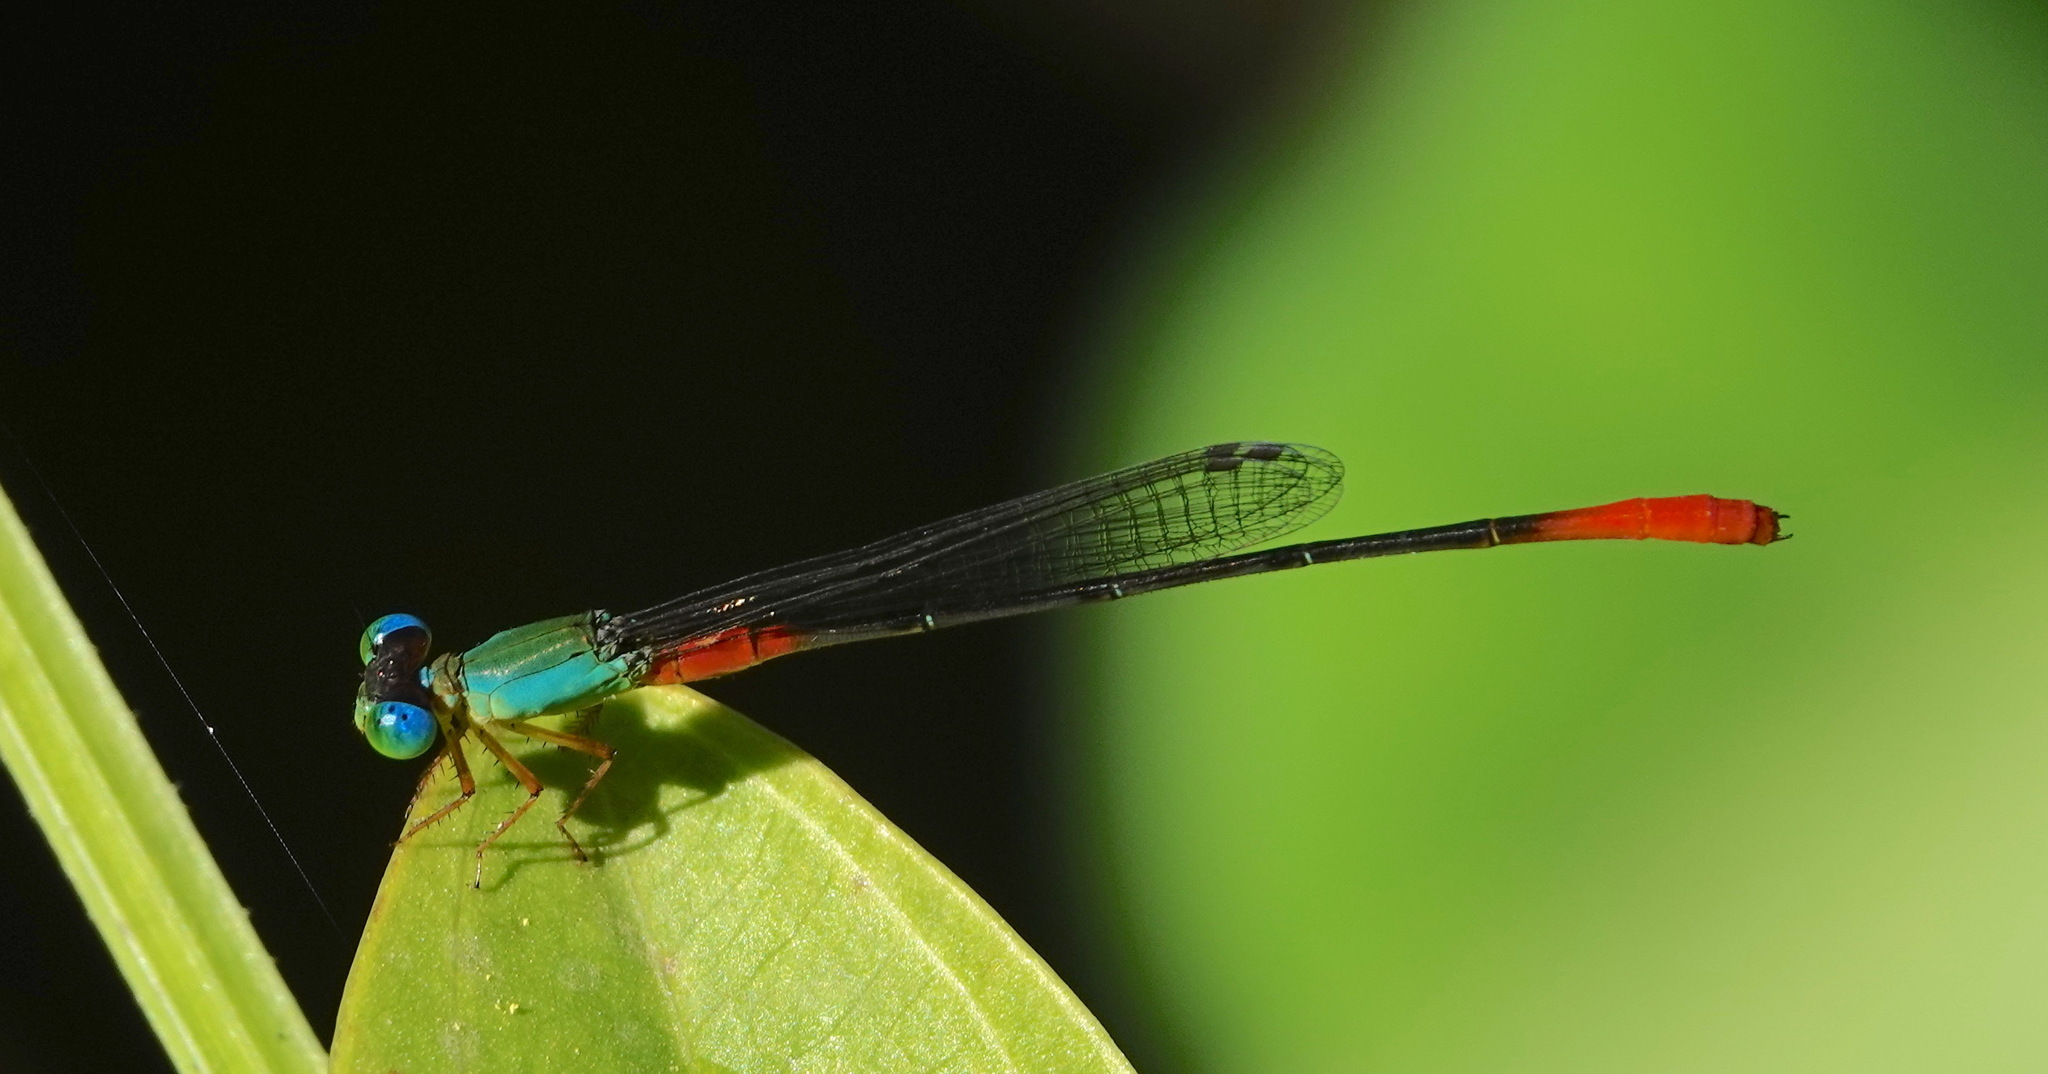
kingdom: Animalia
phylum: Arthropoda
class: Insecta
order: Odonata
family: Coenagrionidae
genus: Ceriagrion
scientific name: Ceriagrion cerinorubellum
